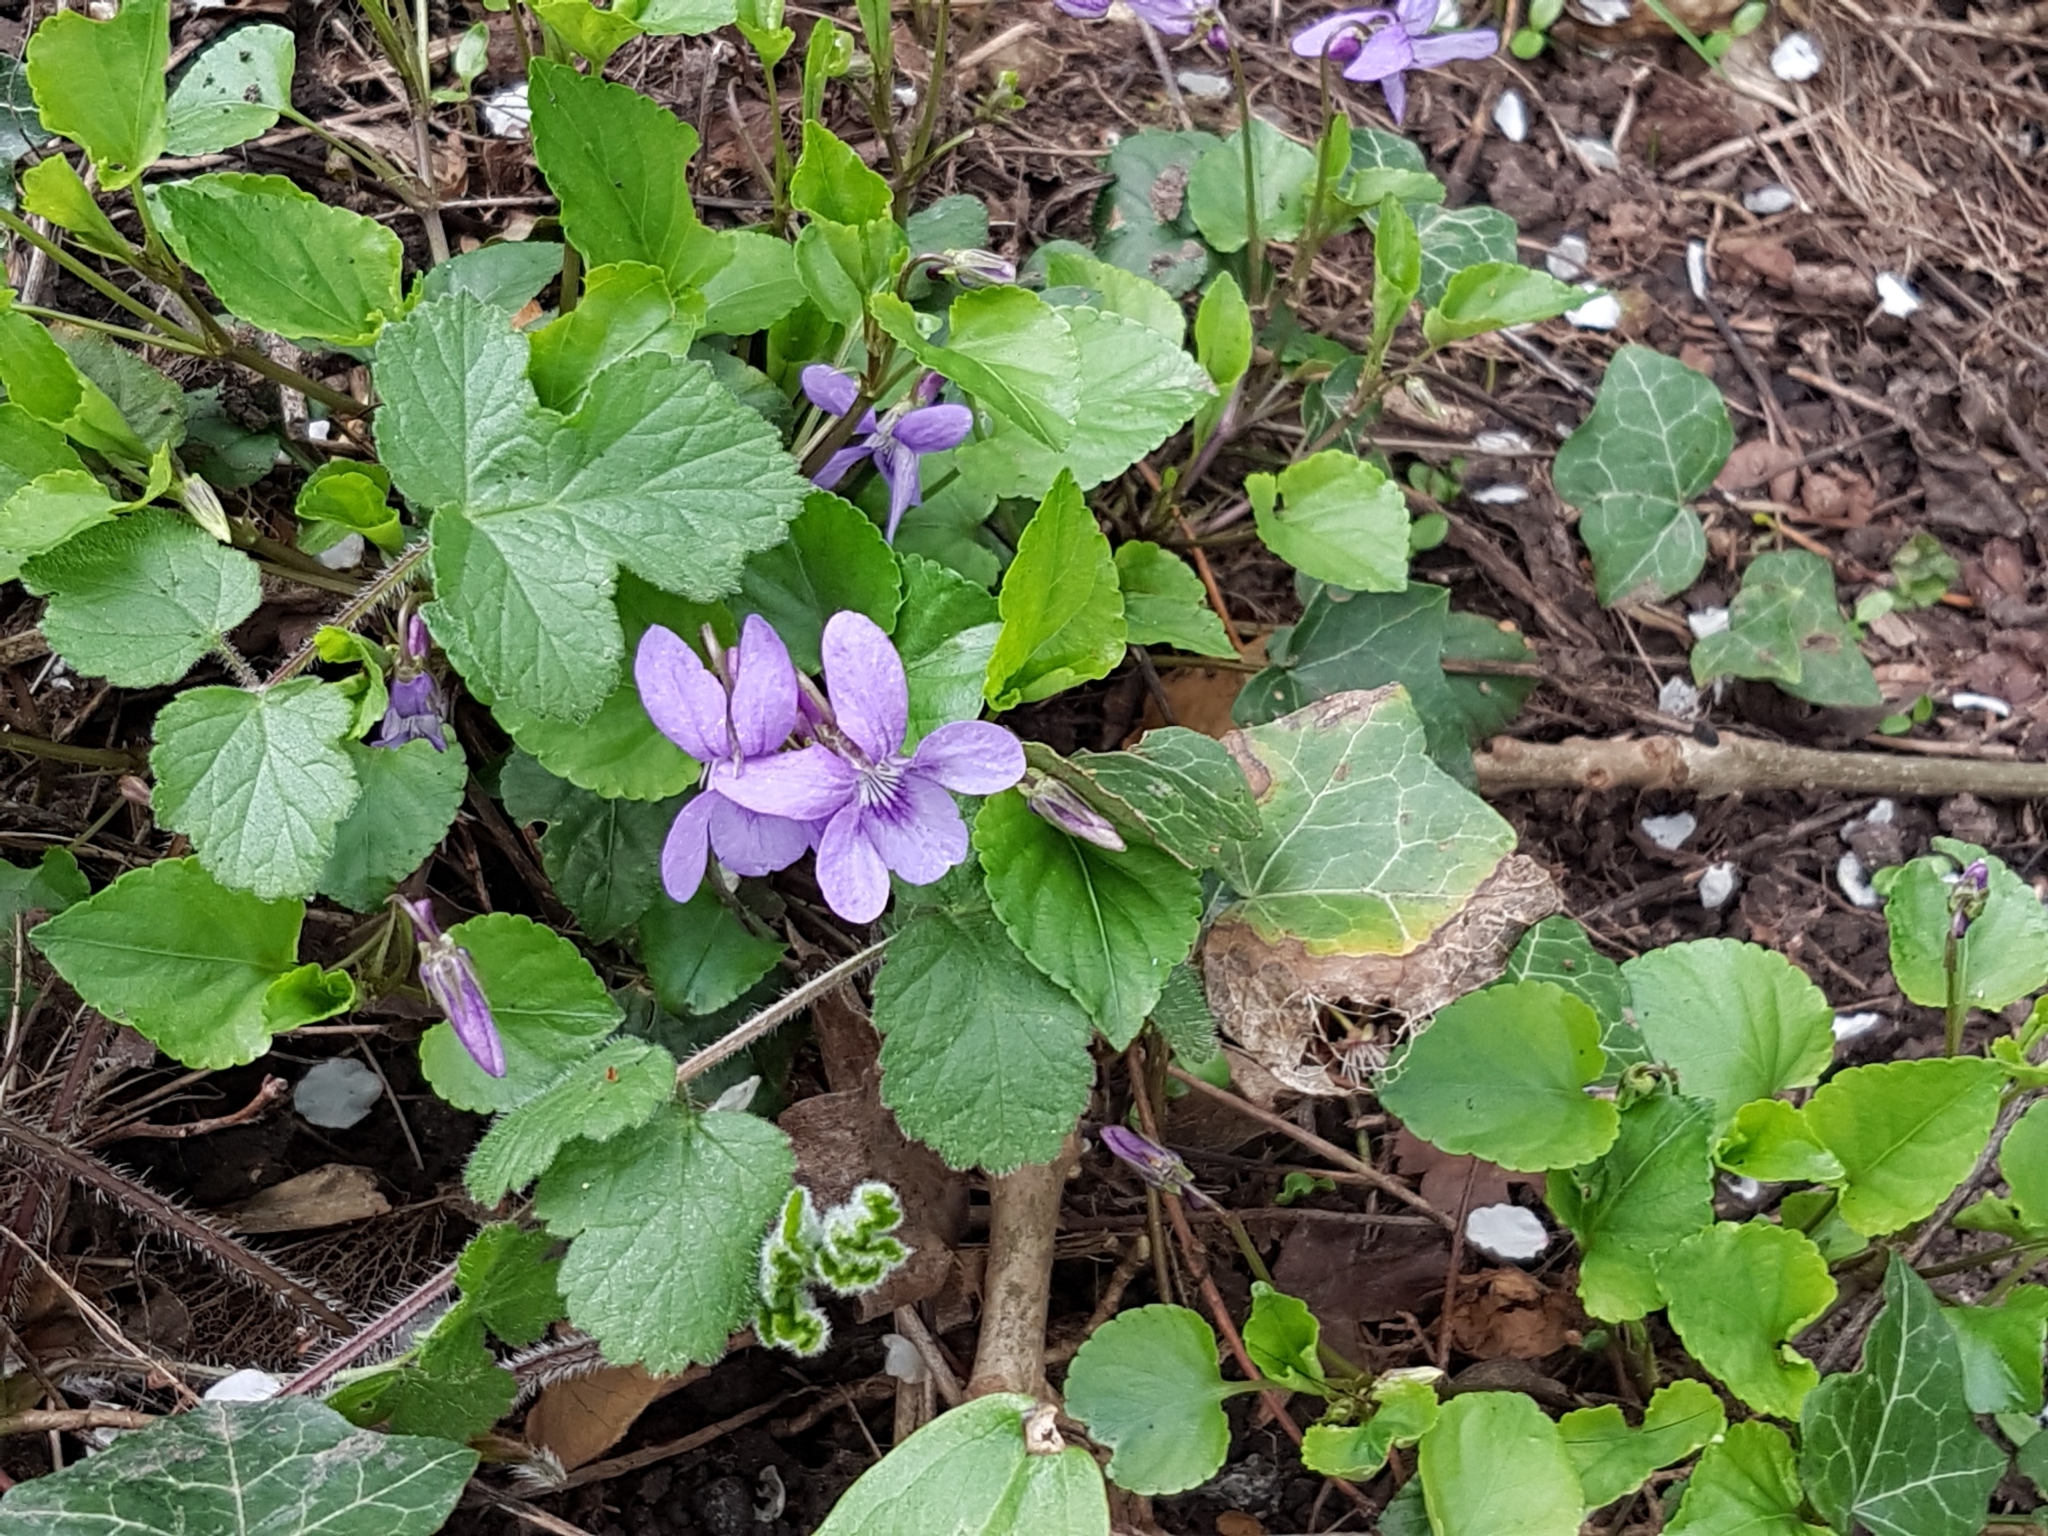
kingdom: Plantae
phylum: Tracheophyta
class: Magnoliopsida
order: Malpighiales
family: Violaceae
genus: Viola
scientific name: Viola reichenbachiana
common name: Early dog-violet
